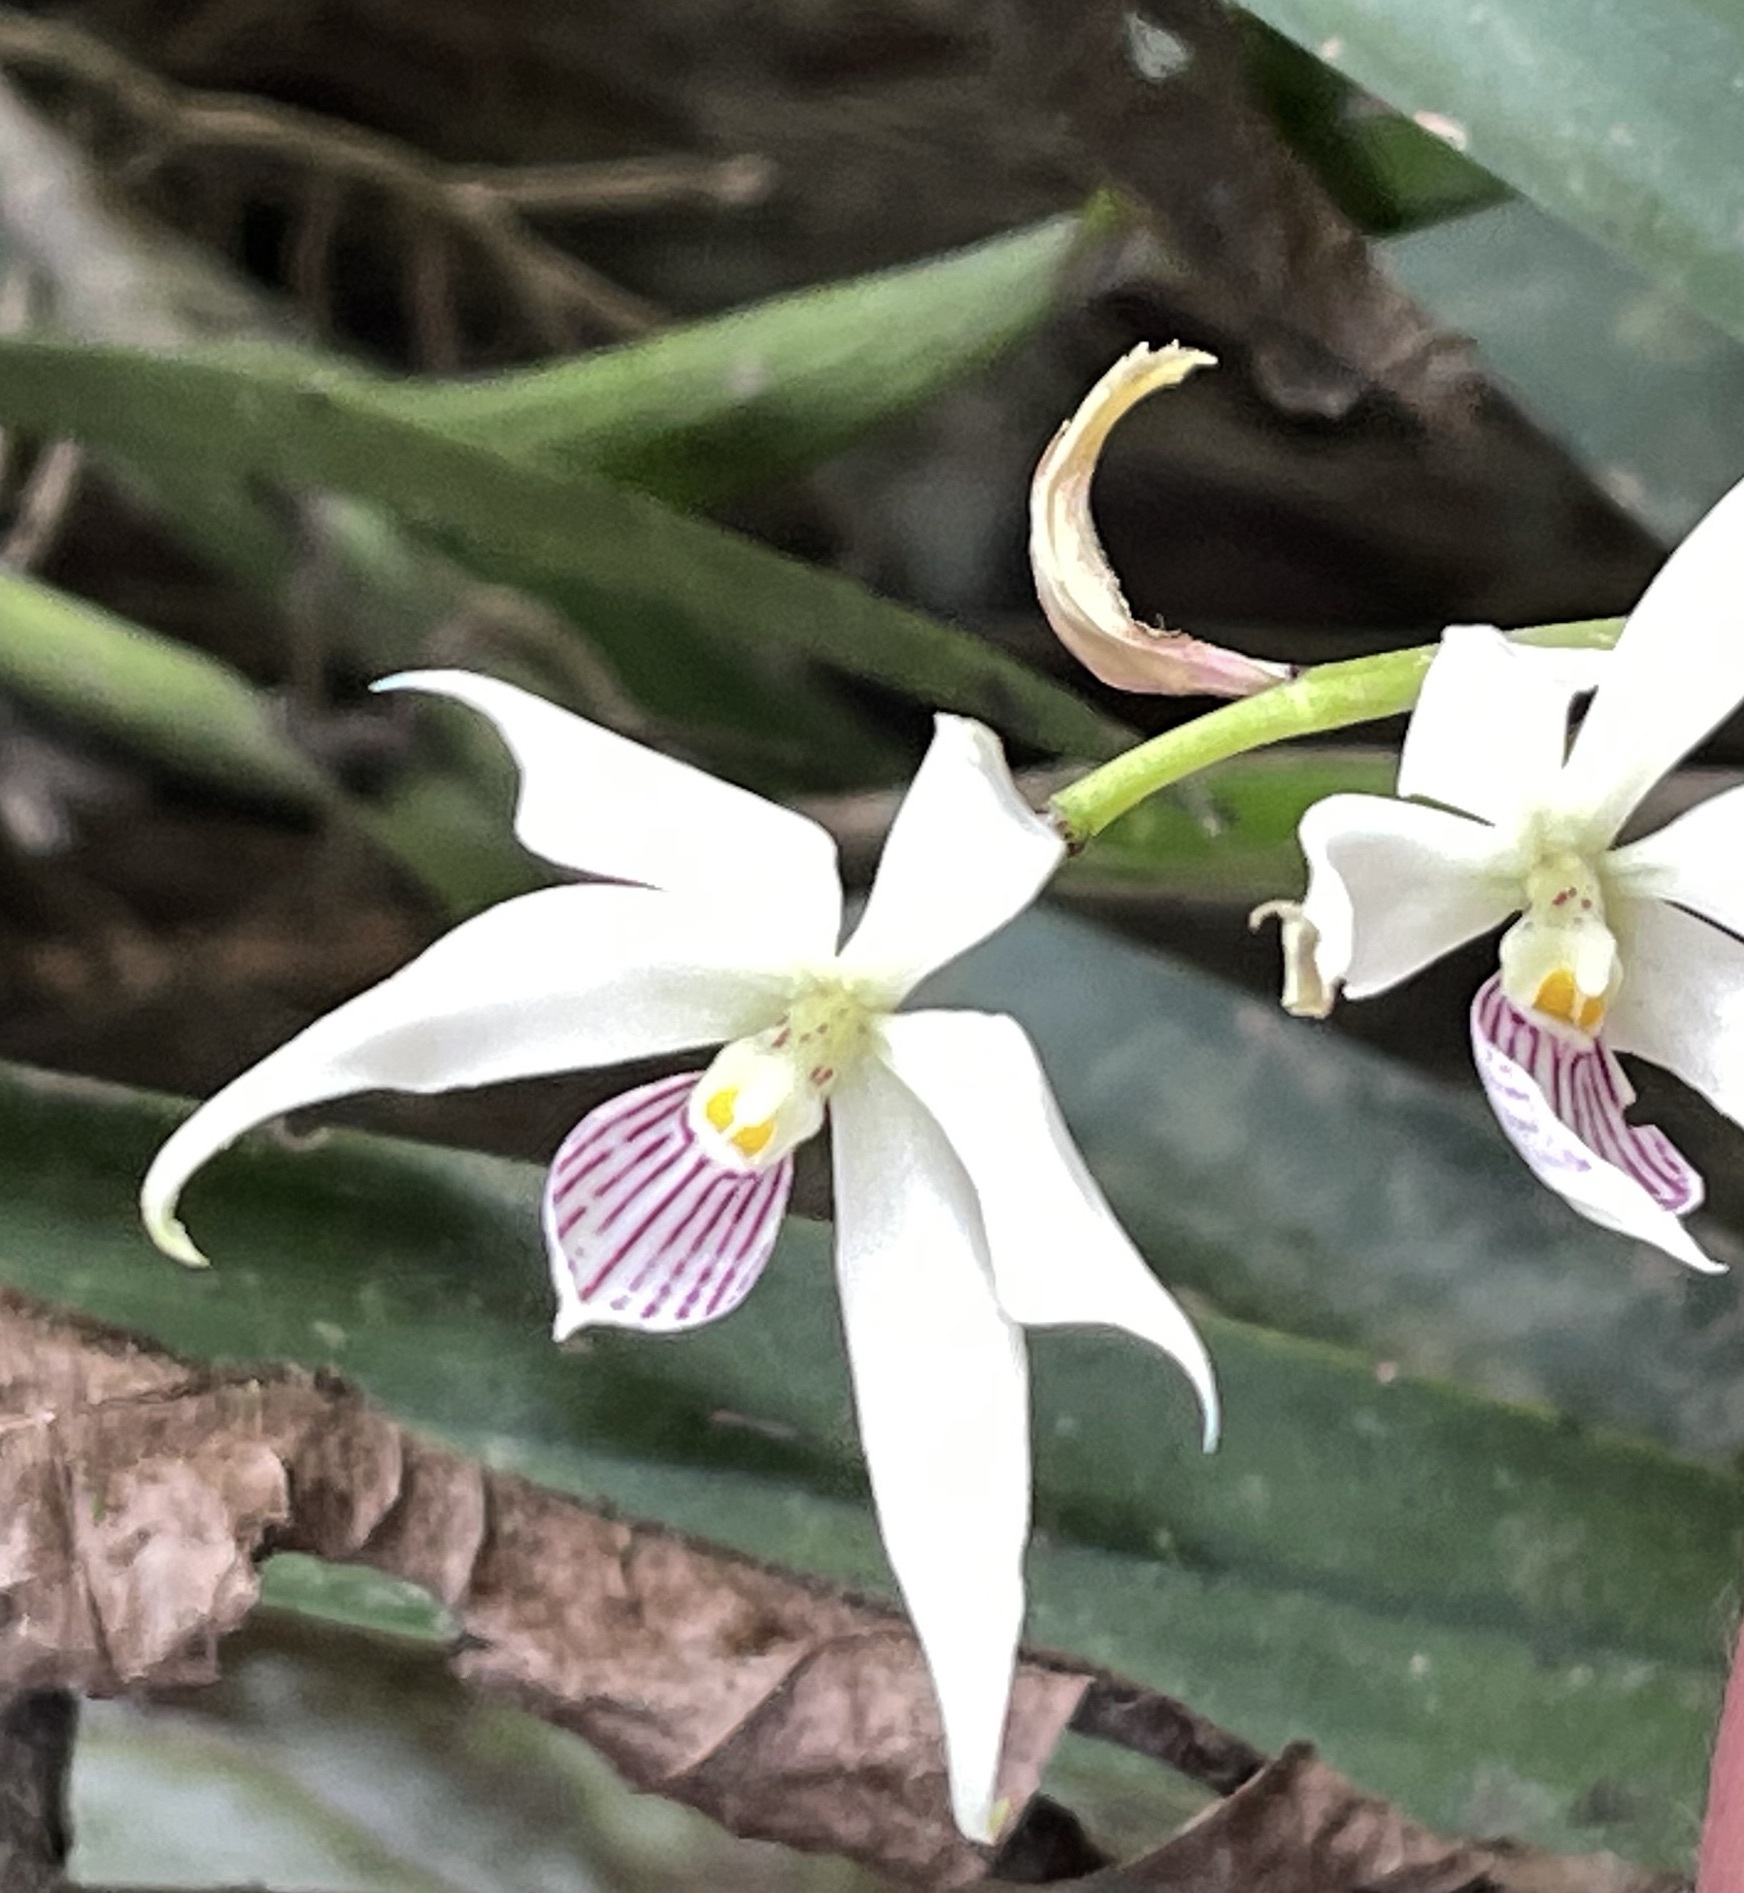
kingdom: Plantae
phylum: Tracheophyta
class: Liliopsida
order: Asparagales
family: Orchidaceae
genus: Prosthechea
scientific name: Prosthechea fragrans
